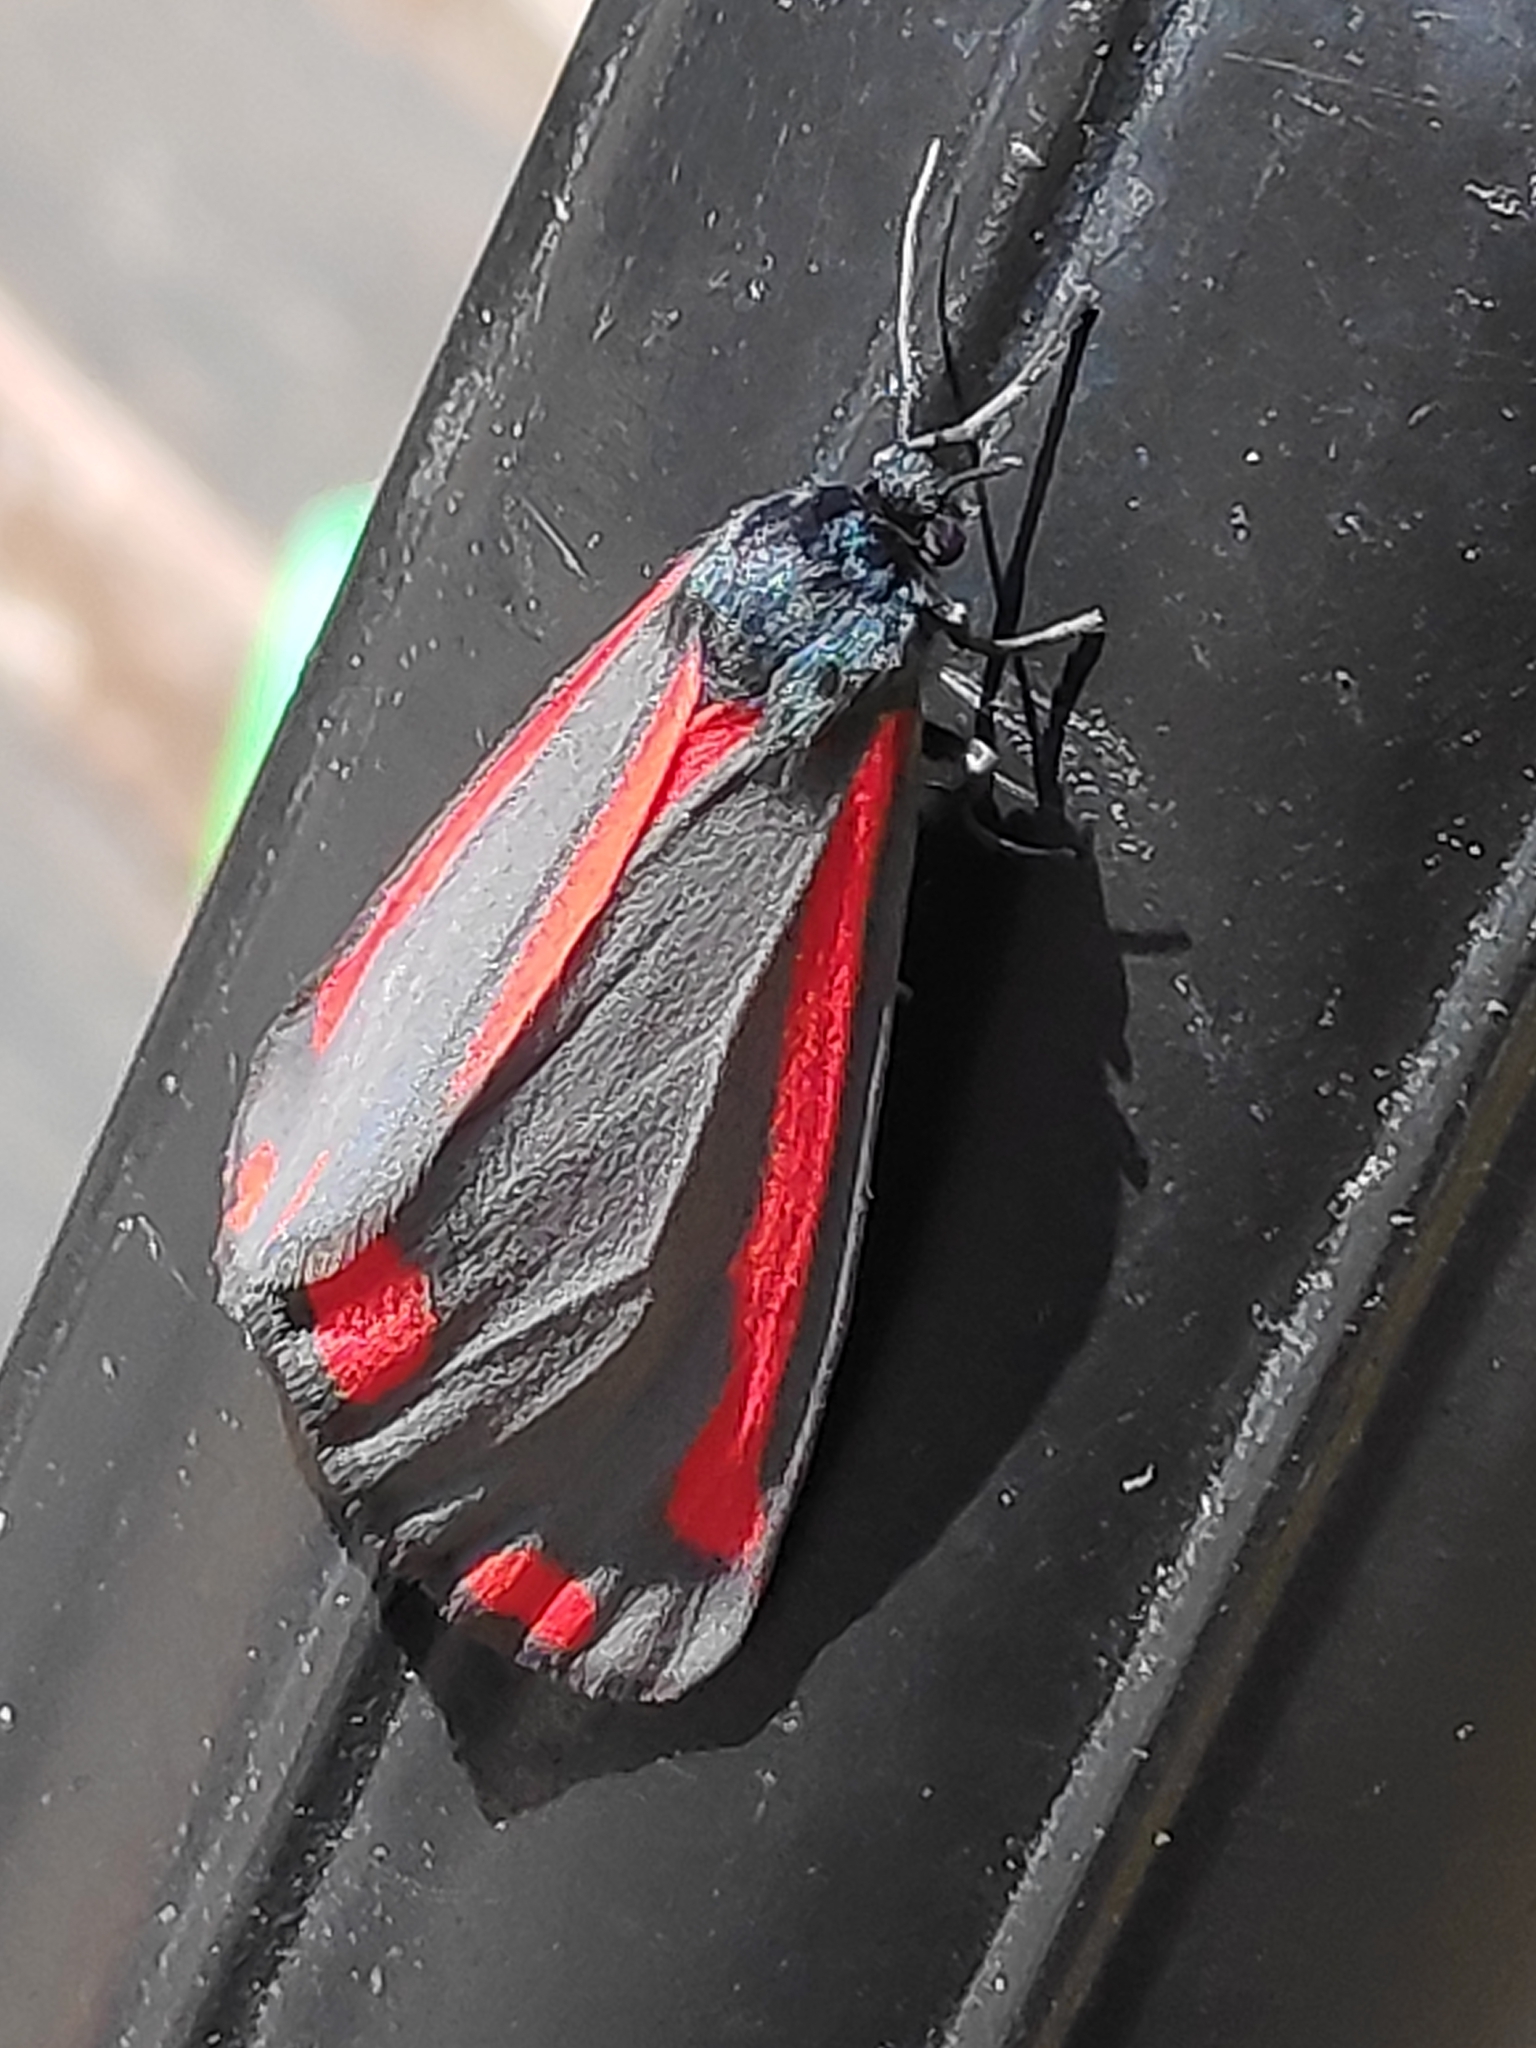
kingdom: Animalia
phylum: Arthropoda
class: Insecta
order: Lepidoptera
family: Erebidae
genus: Tyria
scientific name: Tyria jacobaeae
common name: Cinnabar
